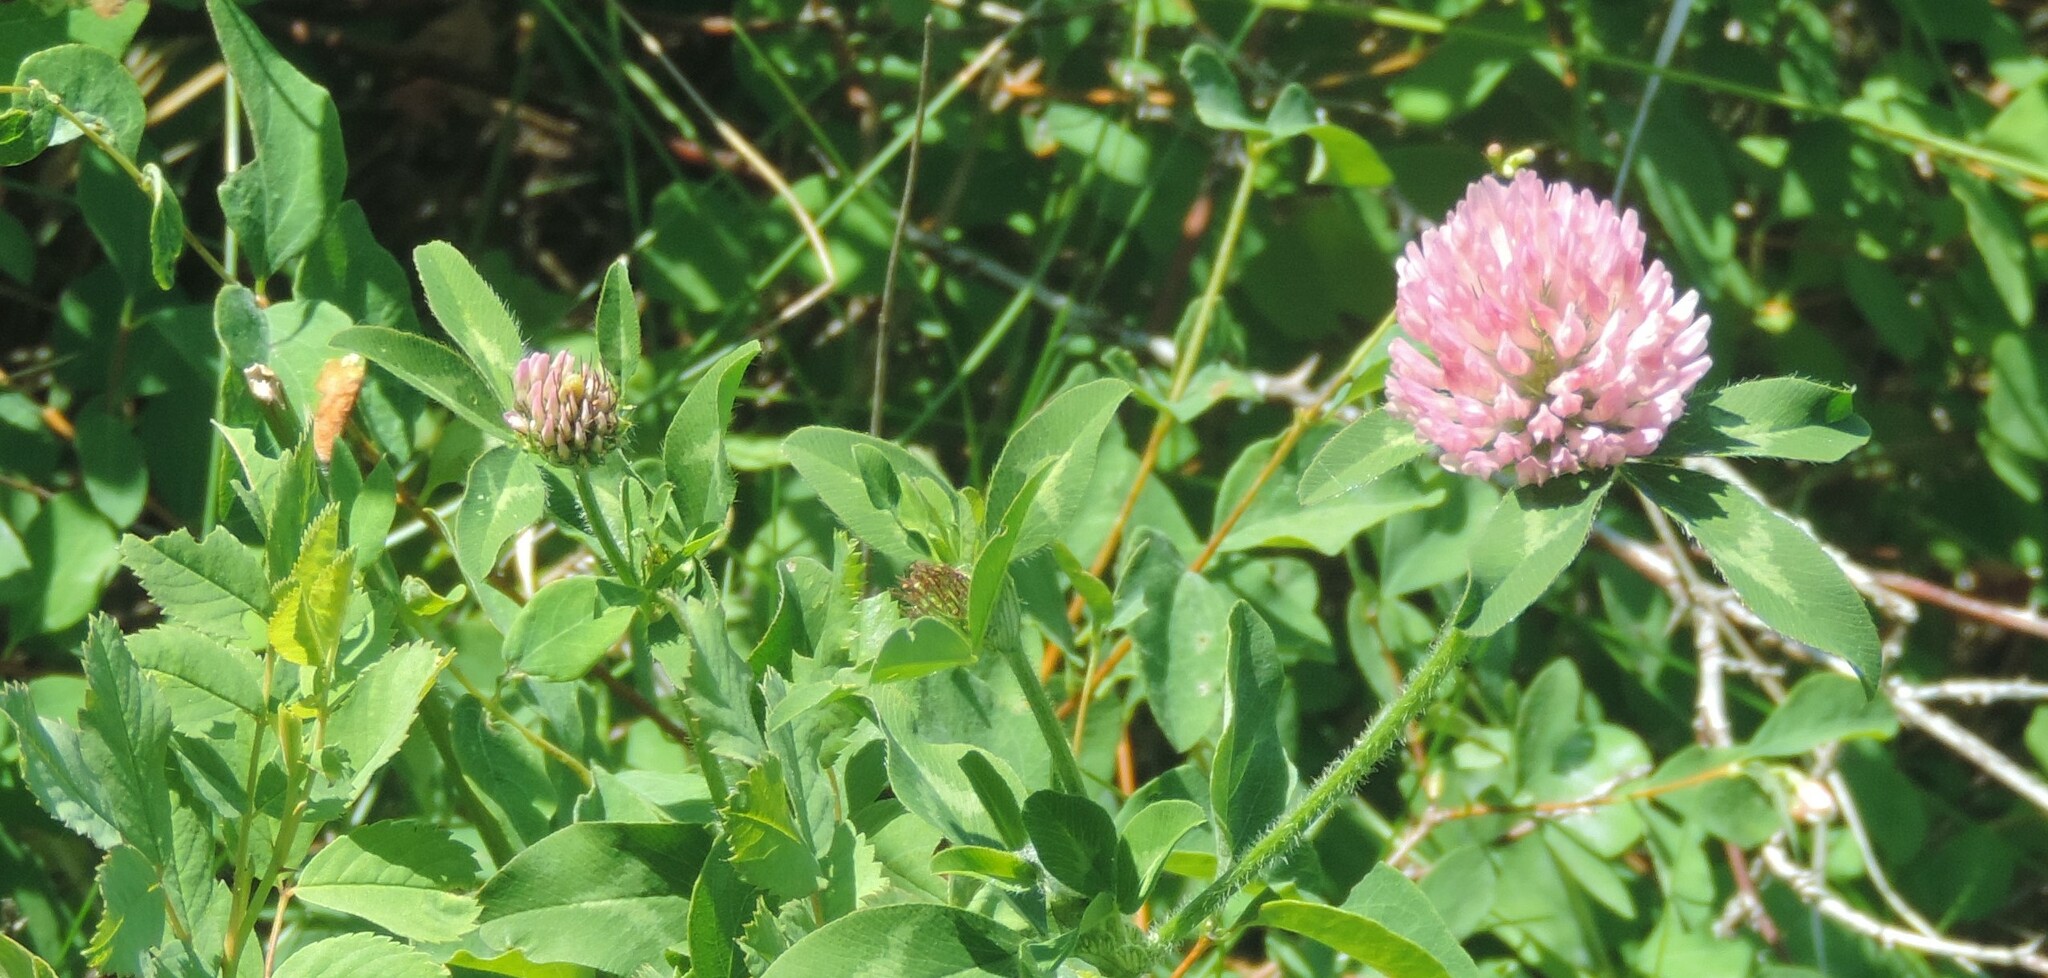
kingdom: Plantae
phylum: Tracheophyta
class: Magnoliopsida
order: Fabales
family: Fabaceae
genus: Trifolium
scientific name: Trifolium pratense
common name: Red clover
